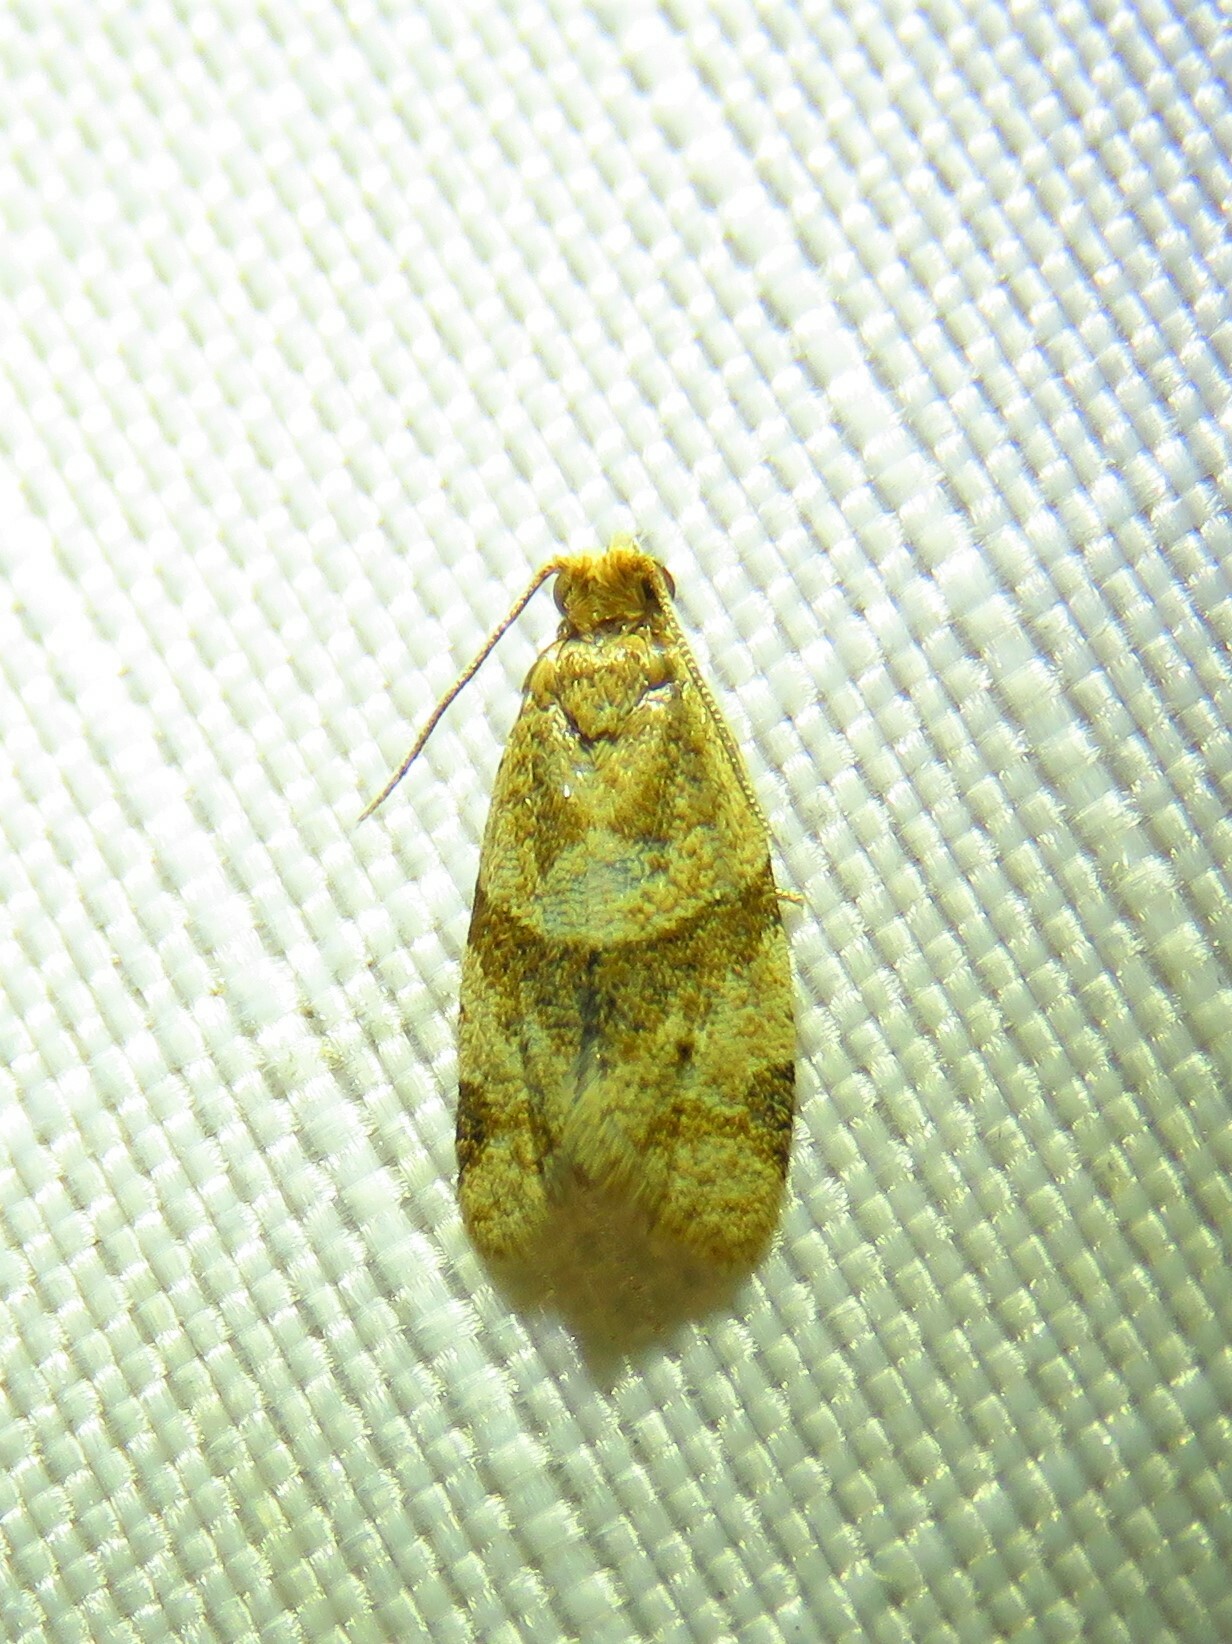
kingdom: Animalia
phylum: Arthropoda
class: Insecta
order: Lepidoptera
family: Tortricidae
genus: Clepsis
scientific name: Clepsis peritana
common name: Garden tortrix
